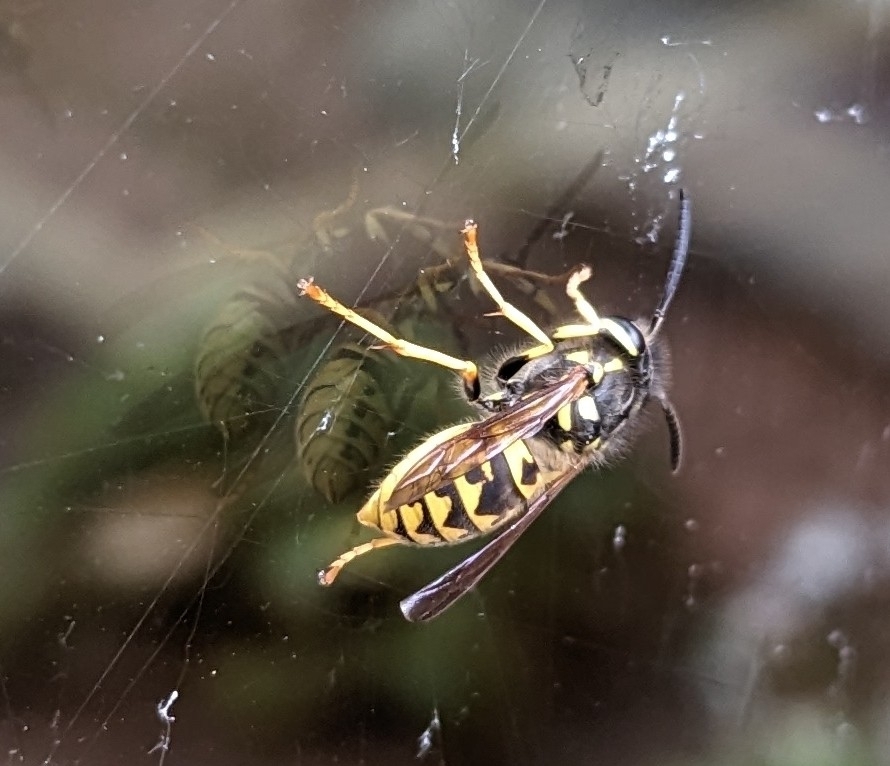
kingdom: Animalia
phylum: Arthropoda
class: Insecta
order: Hymenoptera
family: Vespidae
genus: Vespula
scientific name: Vespula germanica
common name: German wasp
